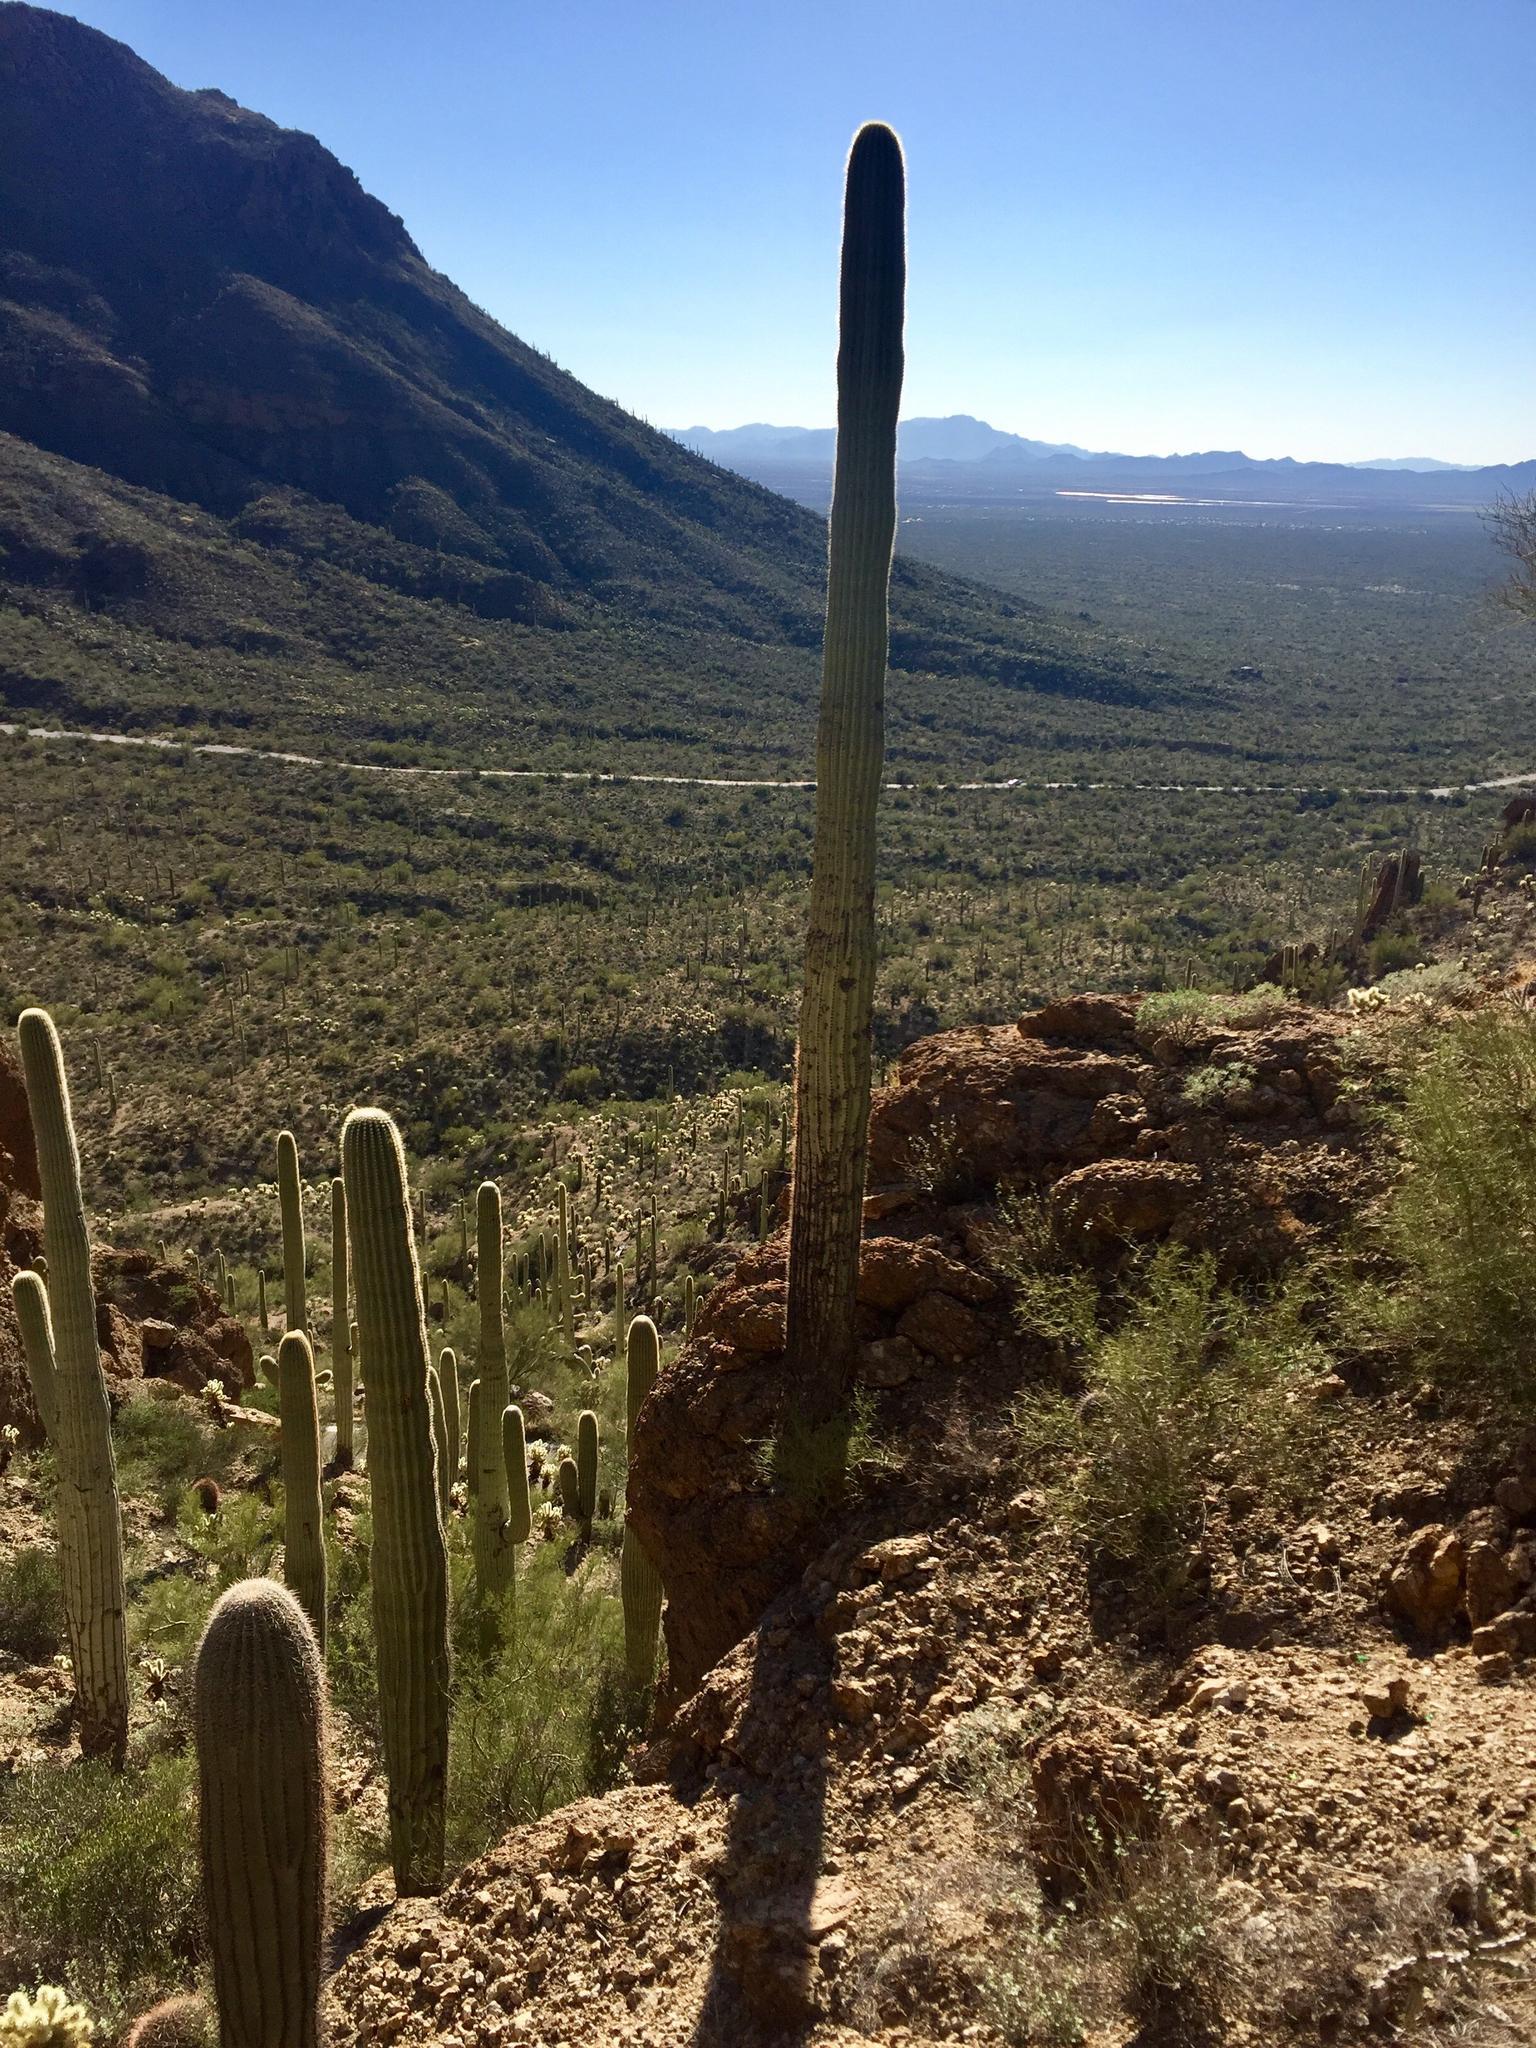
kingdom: Plantae
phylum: Tracheophyta
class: Magnoliopsida
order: Caryophyllales
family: Cactaceae
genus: Carnegiea
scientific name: Carnegiea gigantea
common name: Saguaro
